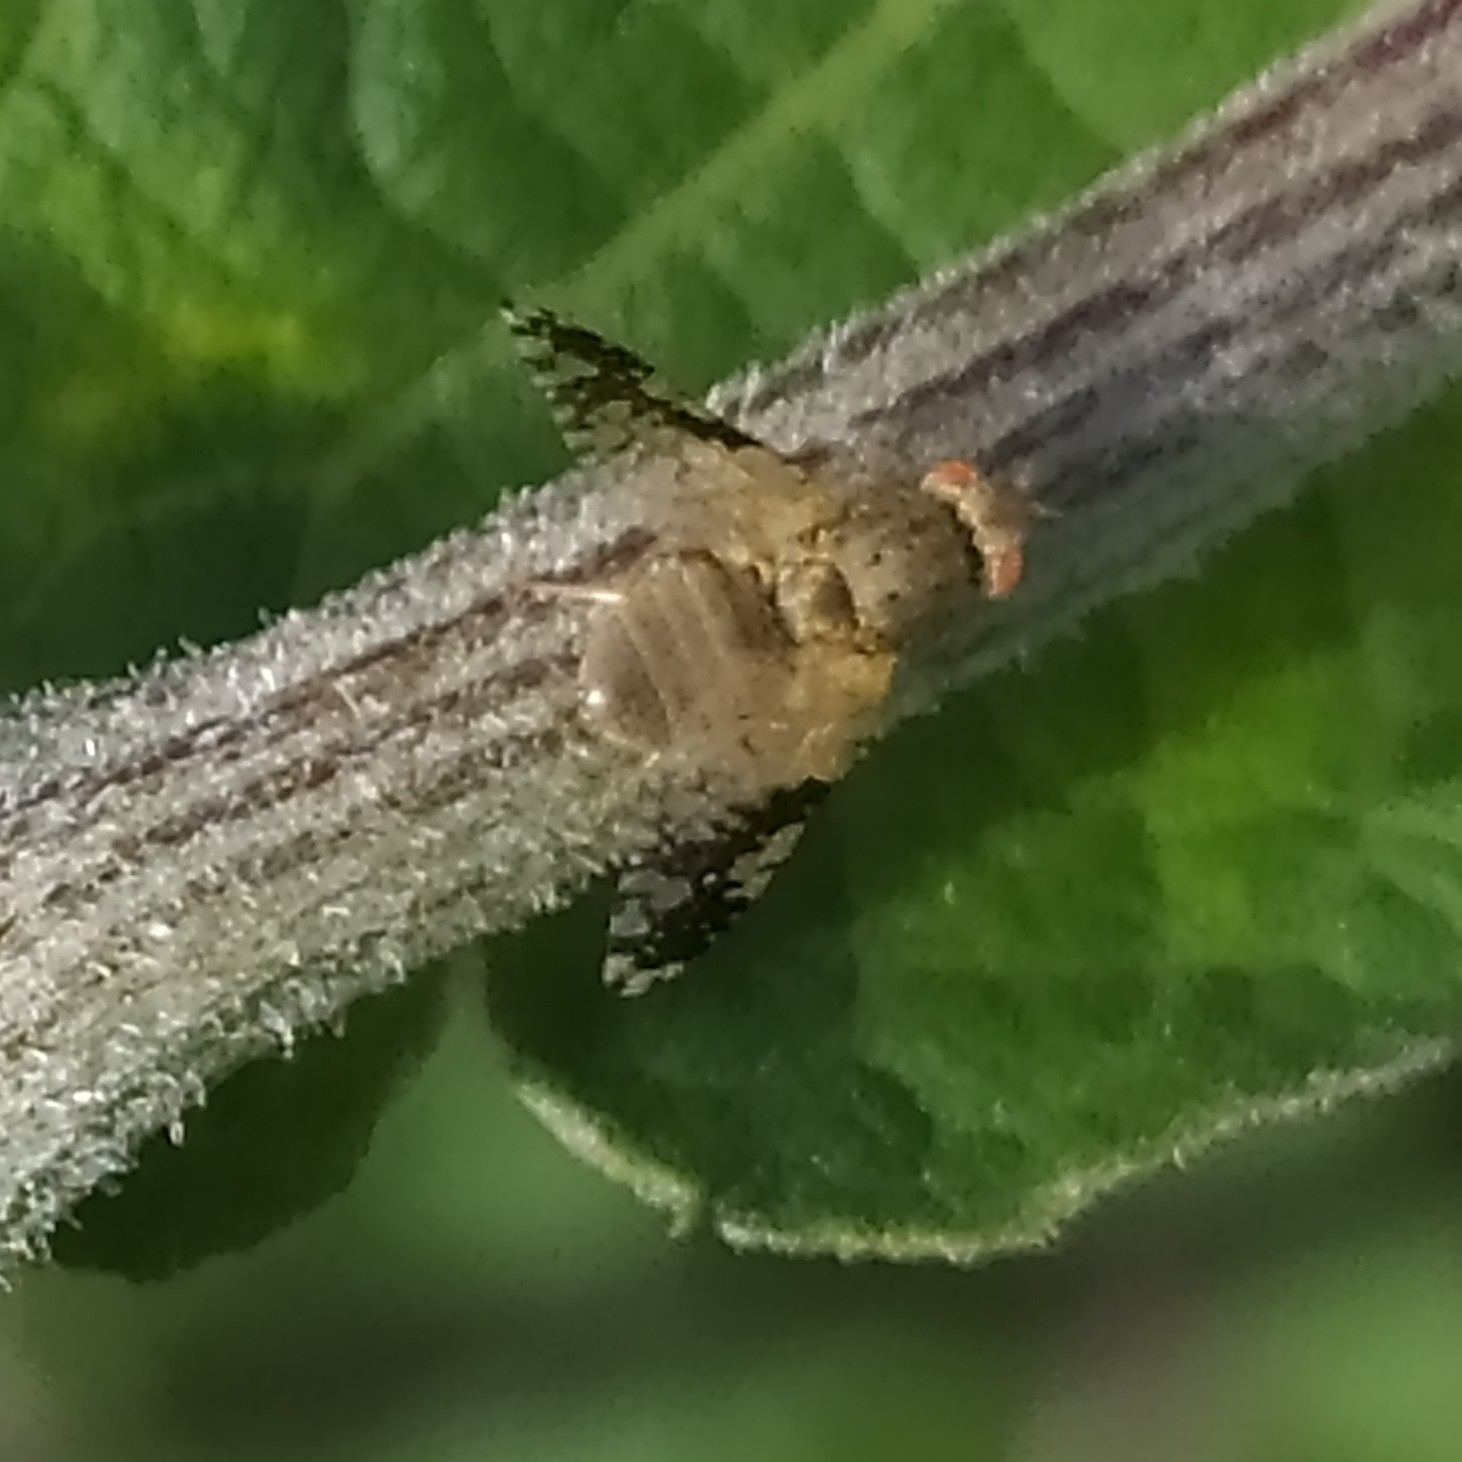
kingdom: Animalia
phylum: Arthropoda
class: Insecta
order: Diptera
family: Tephritidae
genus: Tephritis
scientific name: Tephritis bardanae
